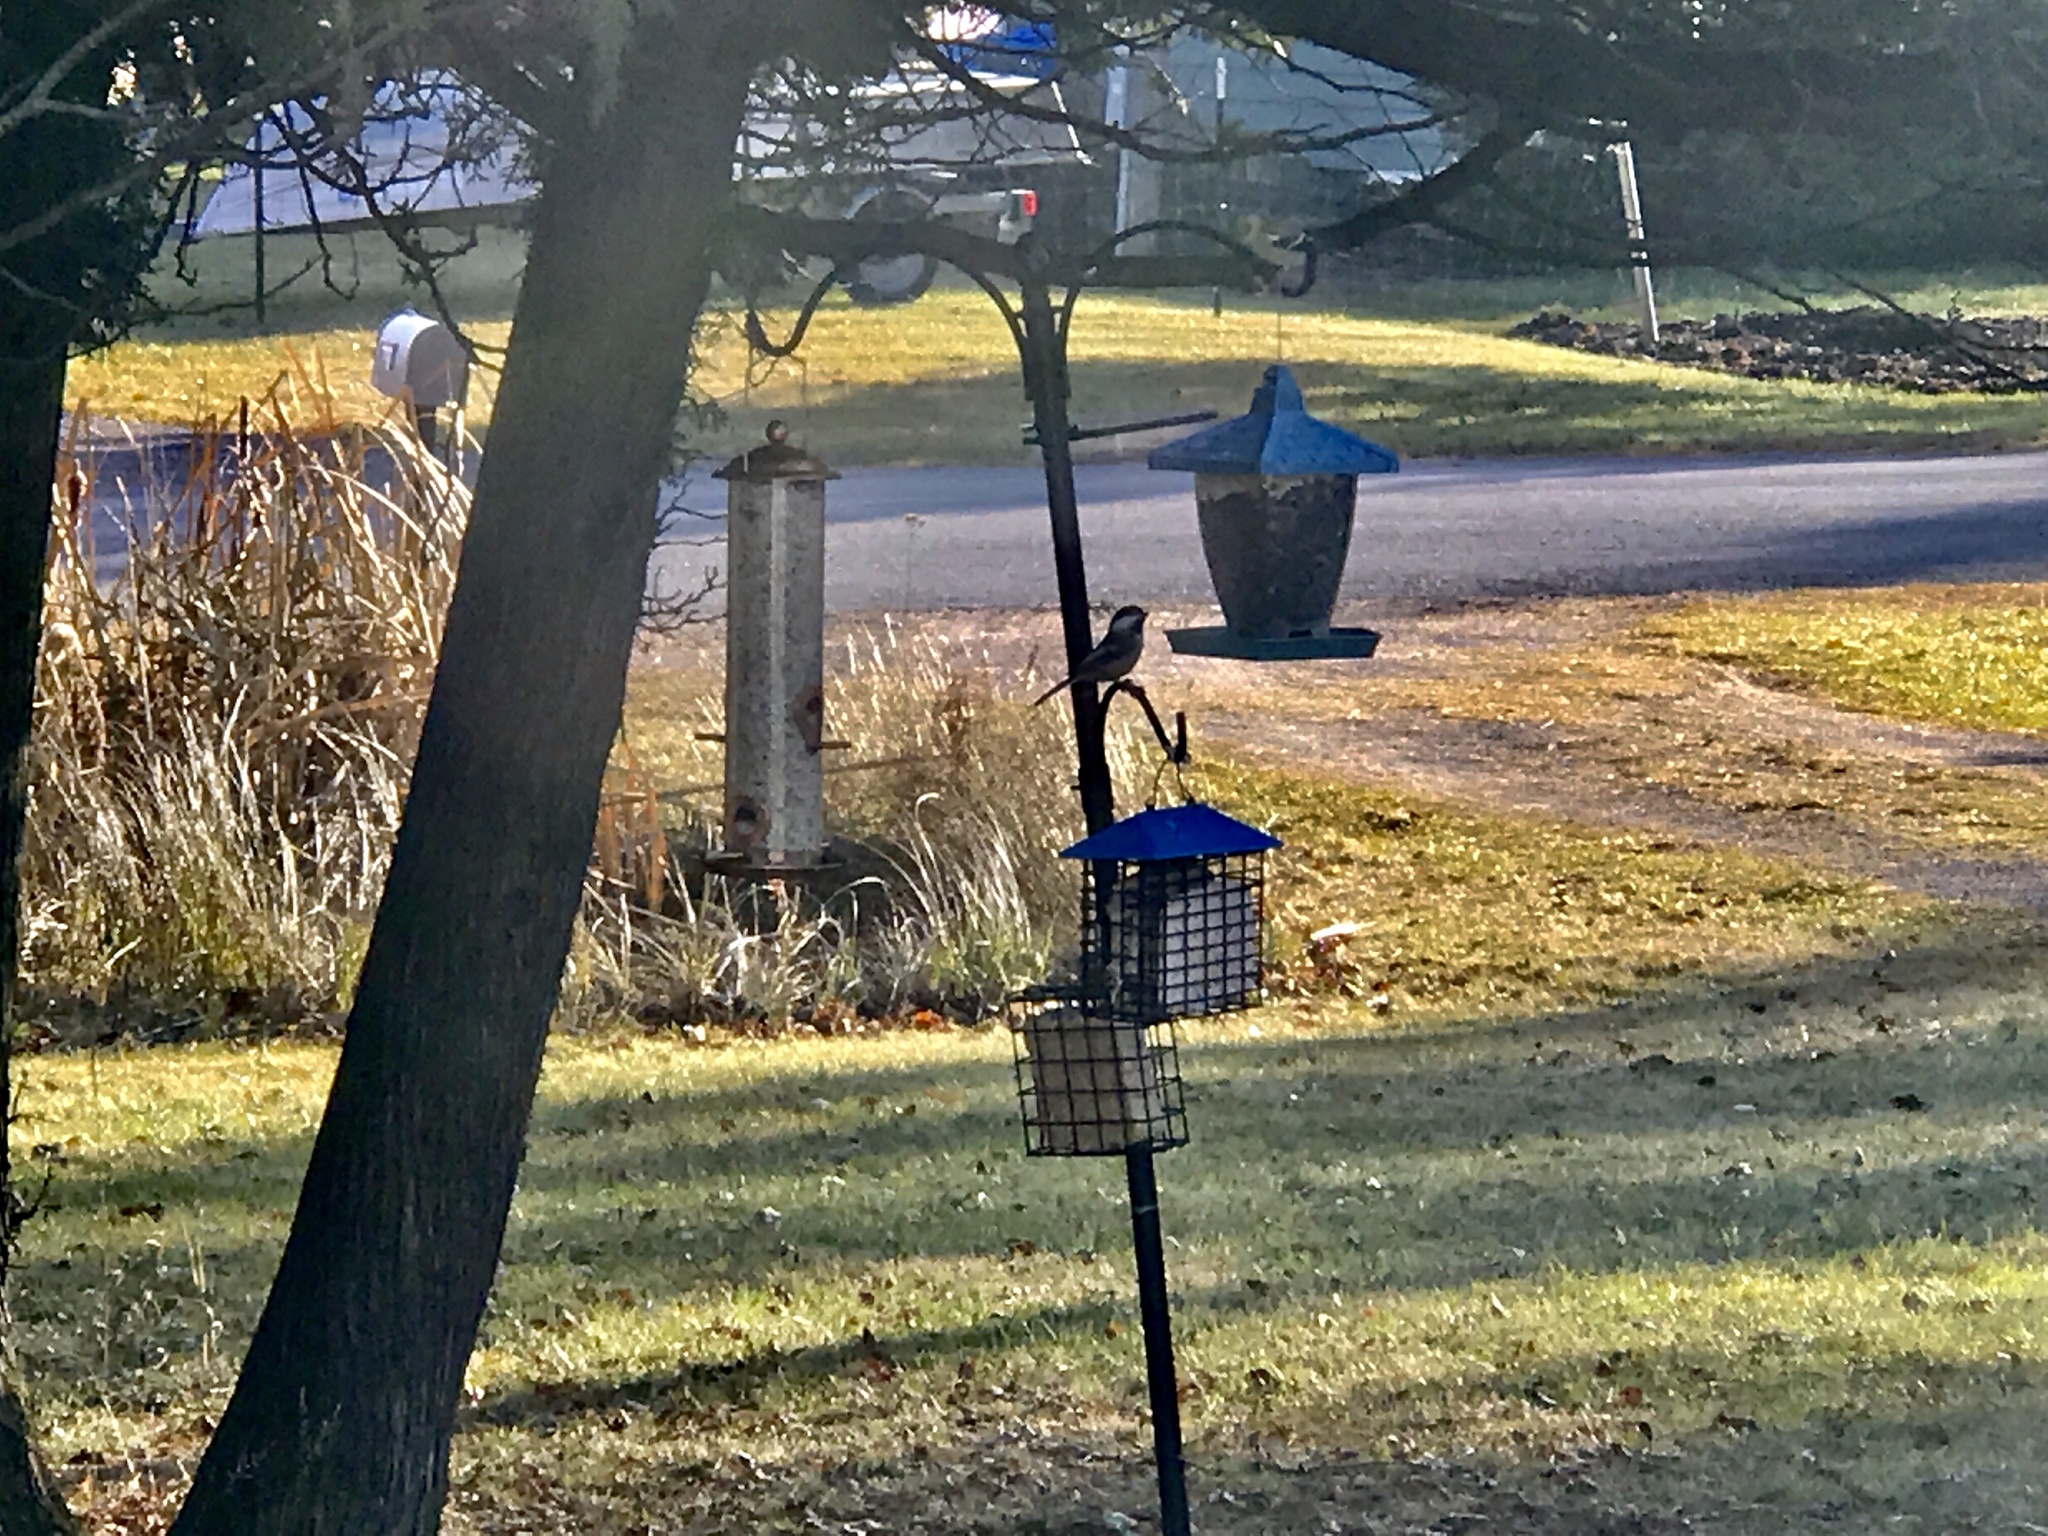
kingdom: Animalia
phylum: Chordata
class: Aves
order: Passeriformes
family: Paridae
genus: Poecile
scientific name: Poecile atricapillus
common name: Black-capped chickadee
